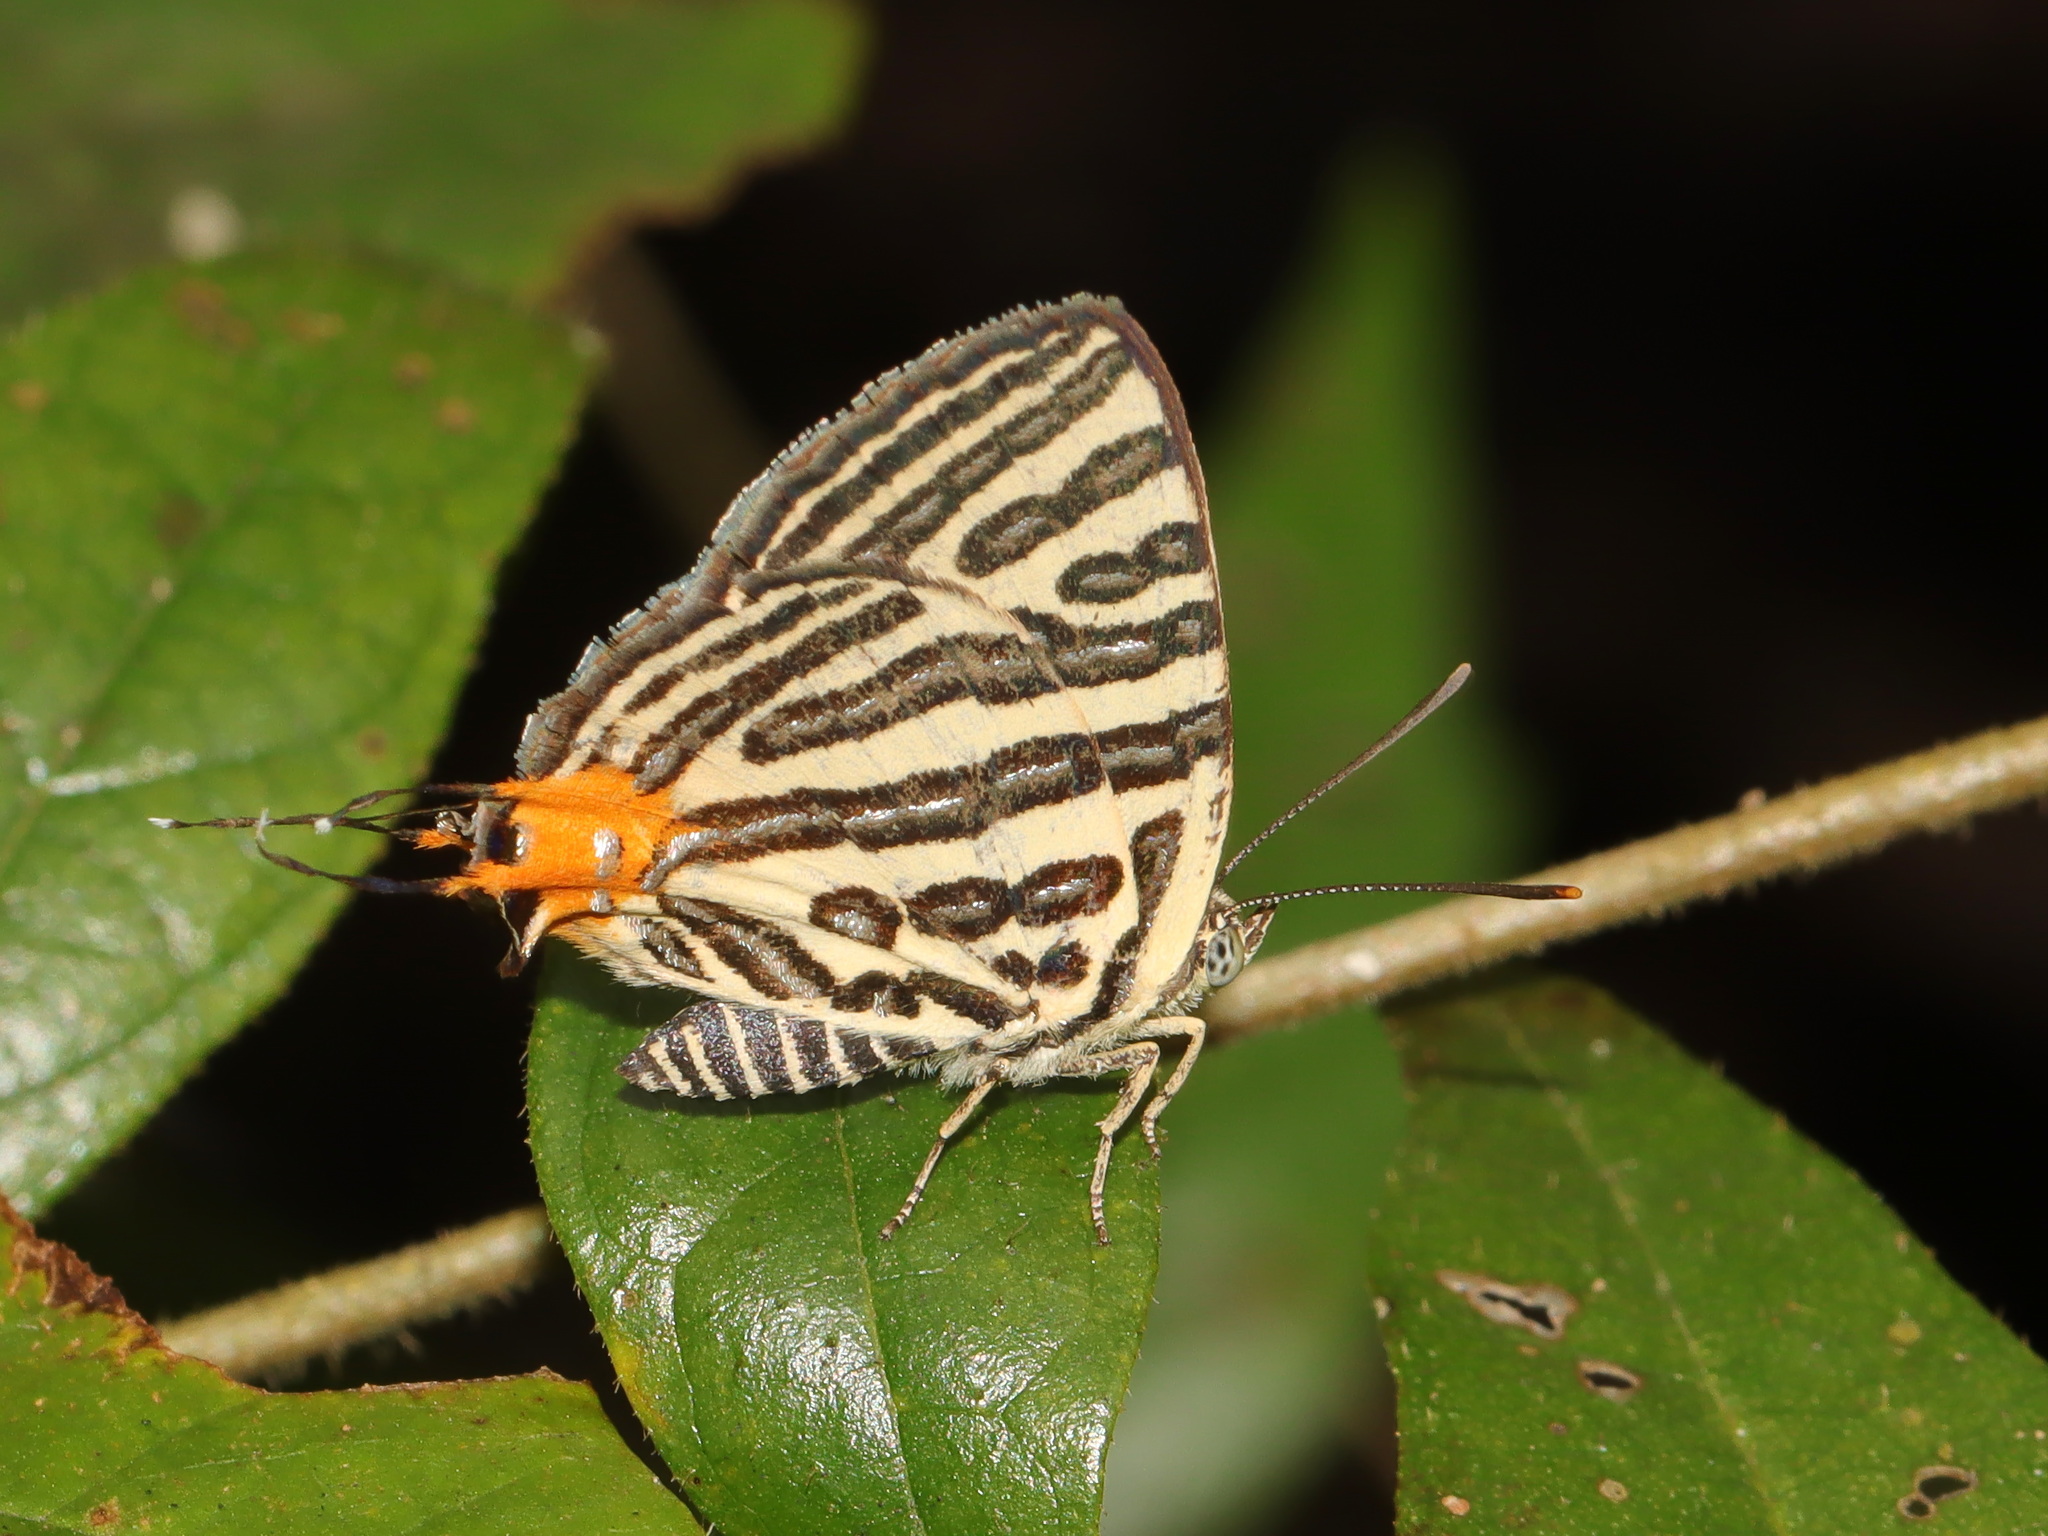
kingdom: Animalia
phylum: Arthropoda
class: Insecta
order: Lepidoptera
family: Lycaenidae
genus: Cigaritis
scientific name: Cigaritis syama
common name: Club silverline
